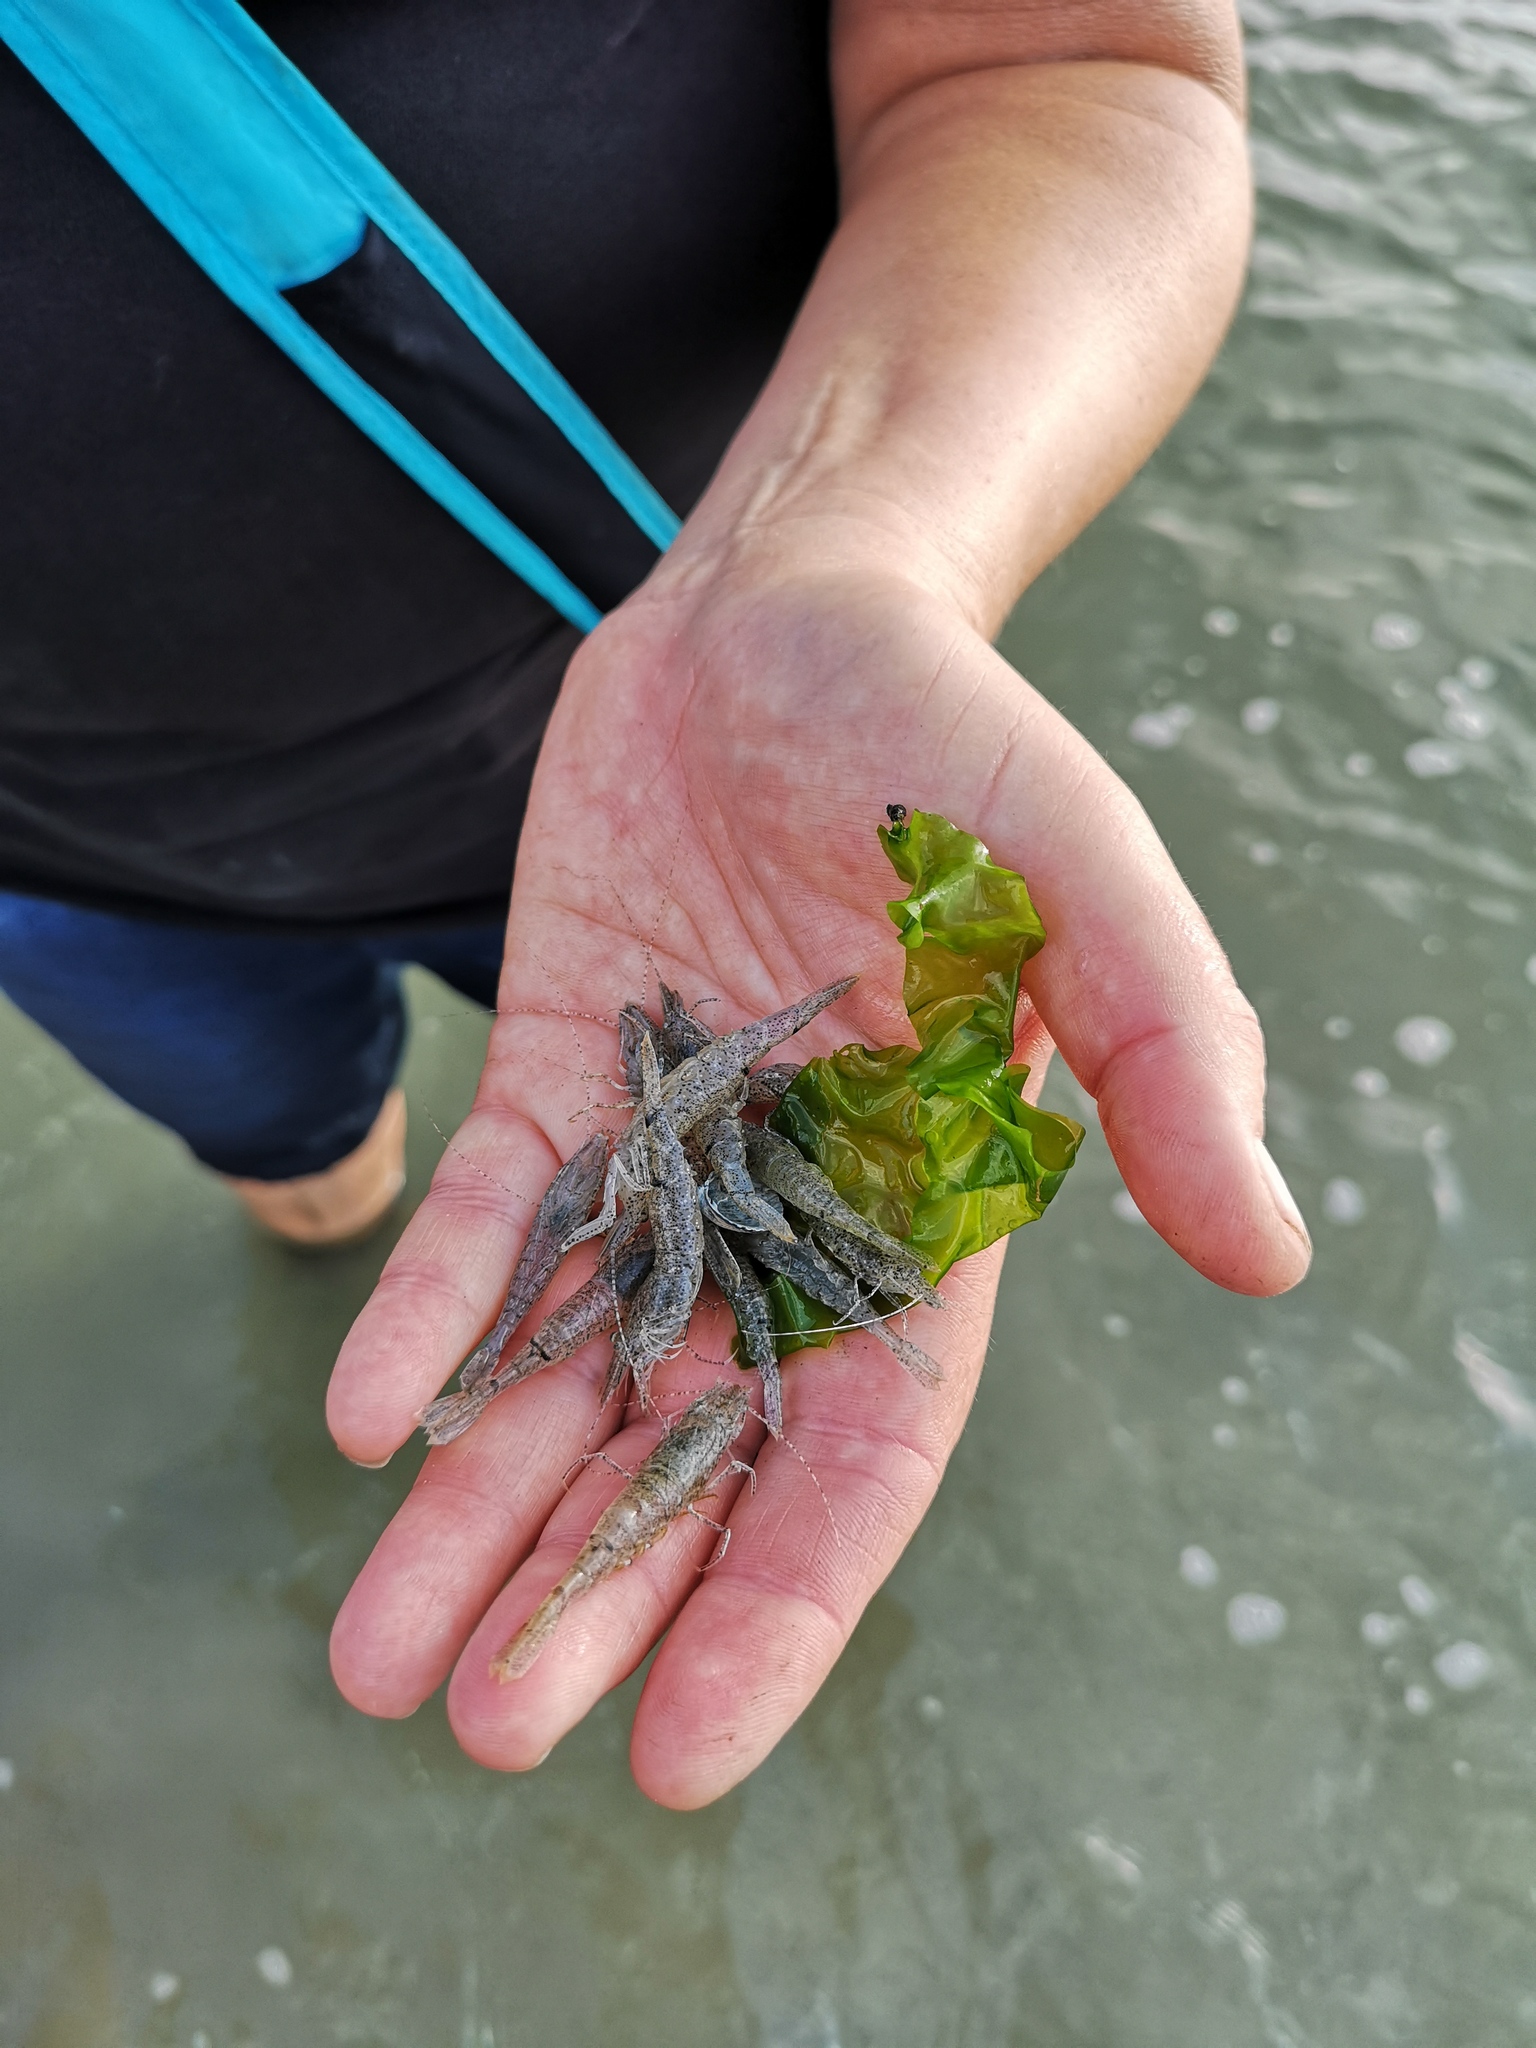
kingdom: Animalia
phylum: Arthropoda
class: Malacostraca
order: Decapoda
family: Crangonidae
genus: Crangon
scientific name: Crangon crangon
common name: Brown shrimp
